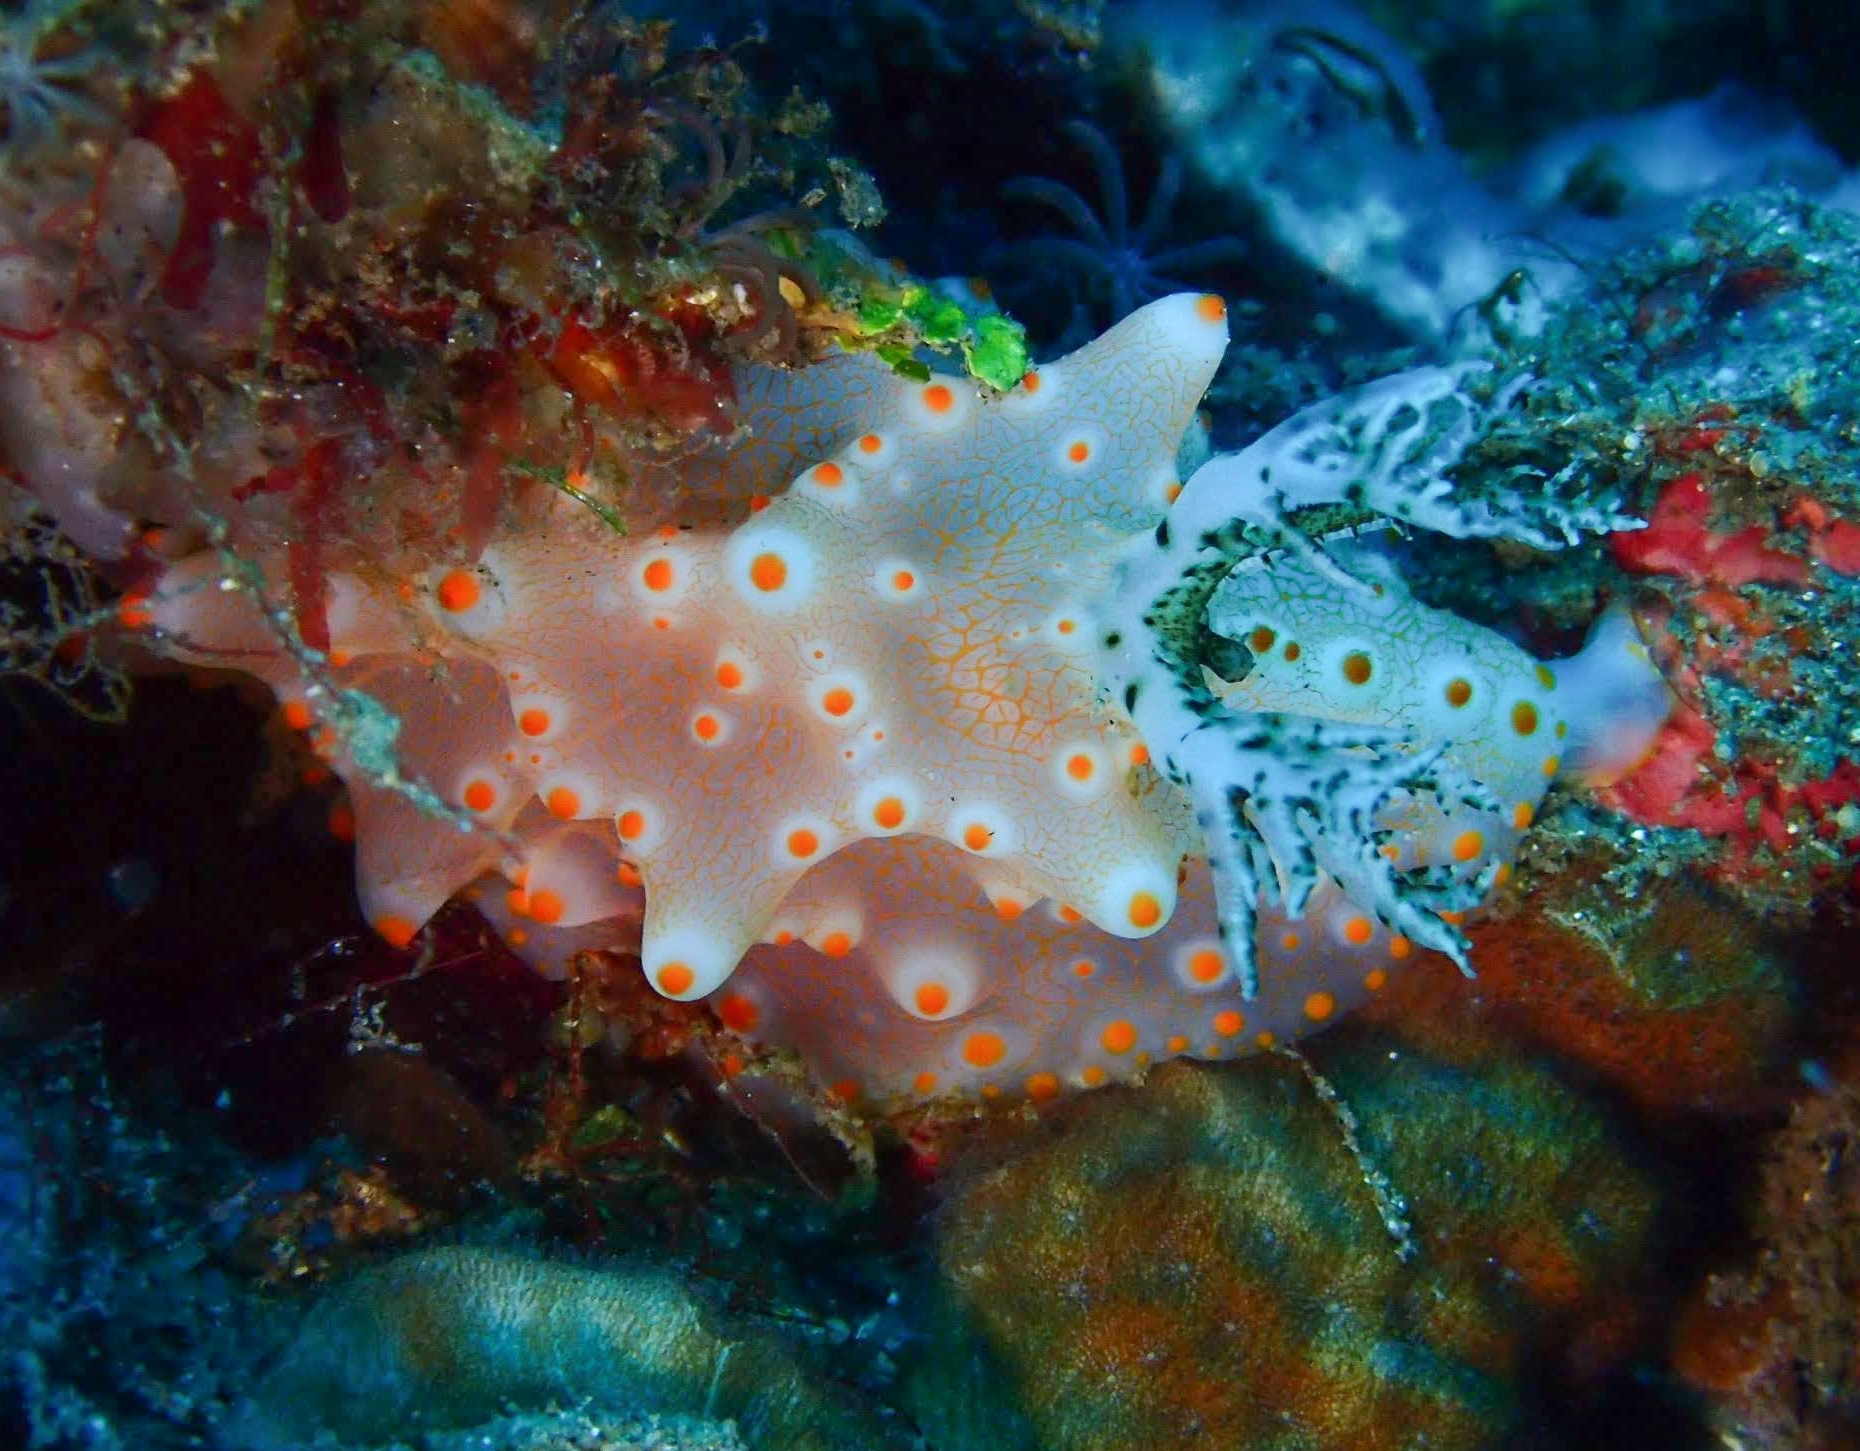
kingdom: Animalia
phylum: Mollusca
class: Gastropoda
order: Nudibranchia
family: Discodorididae
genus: Halgerda
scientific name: Halgerda batangas
